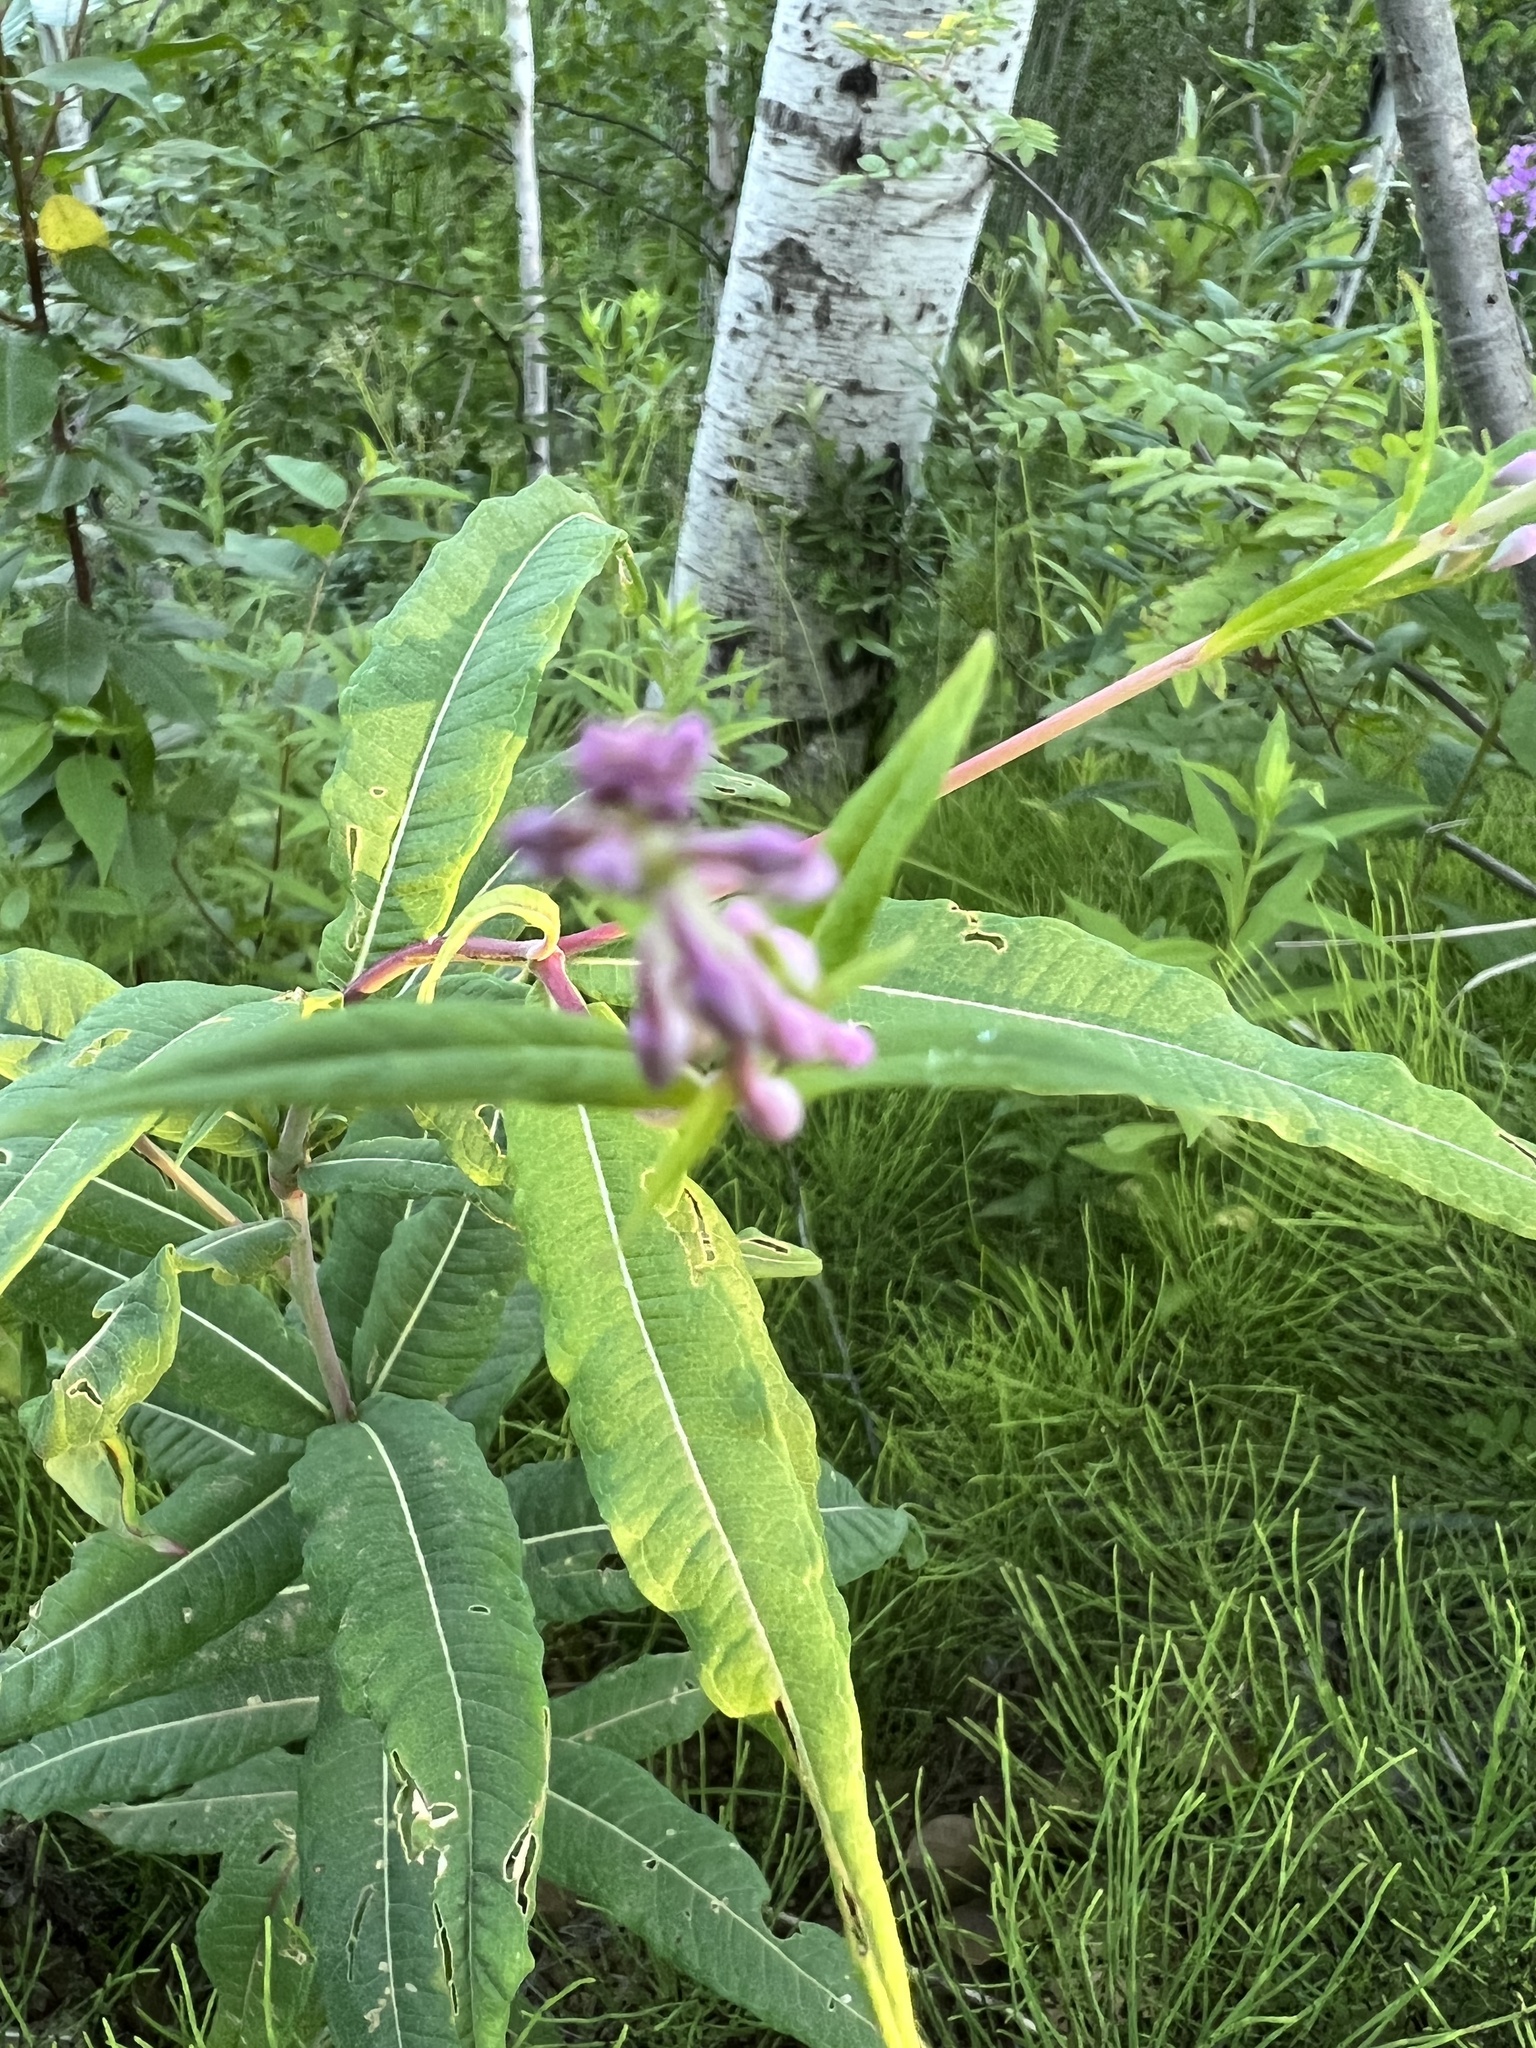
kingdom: Plantae
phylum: Tracheophyta
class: Magnoliopsida
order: Myrtales
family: Onagraceae
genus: Chamaenerion
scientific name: Chamaenerion angustifolium
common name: Fireweed
